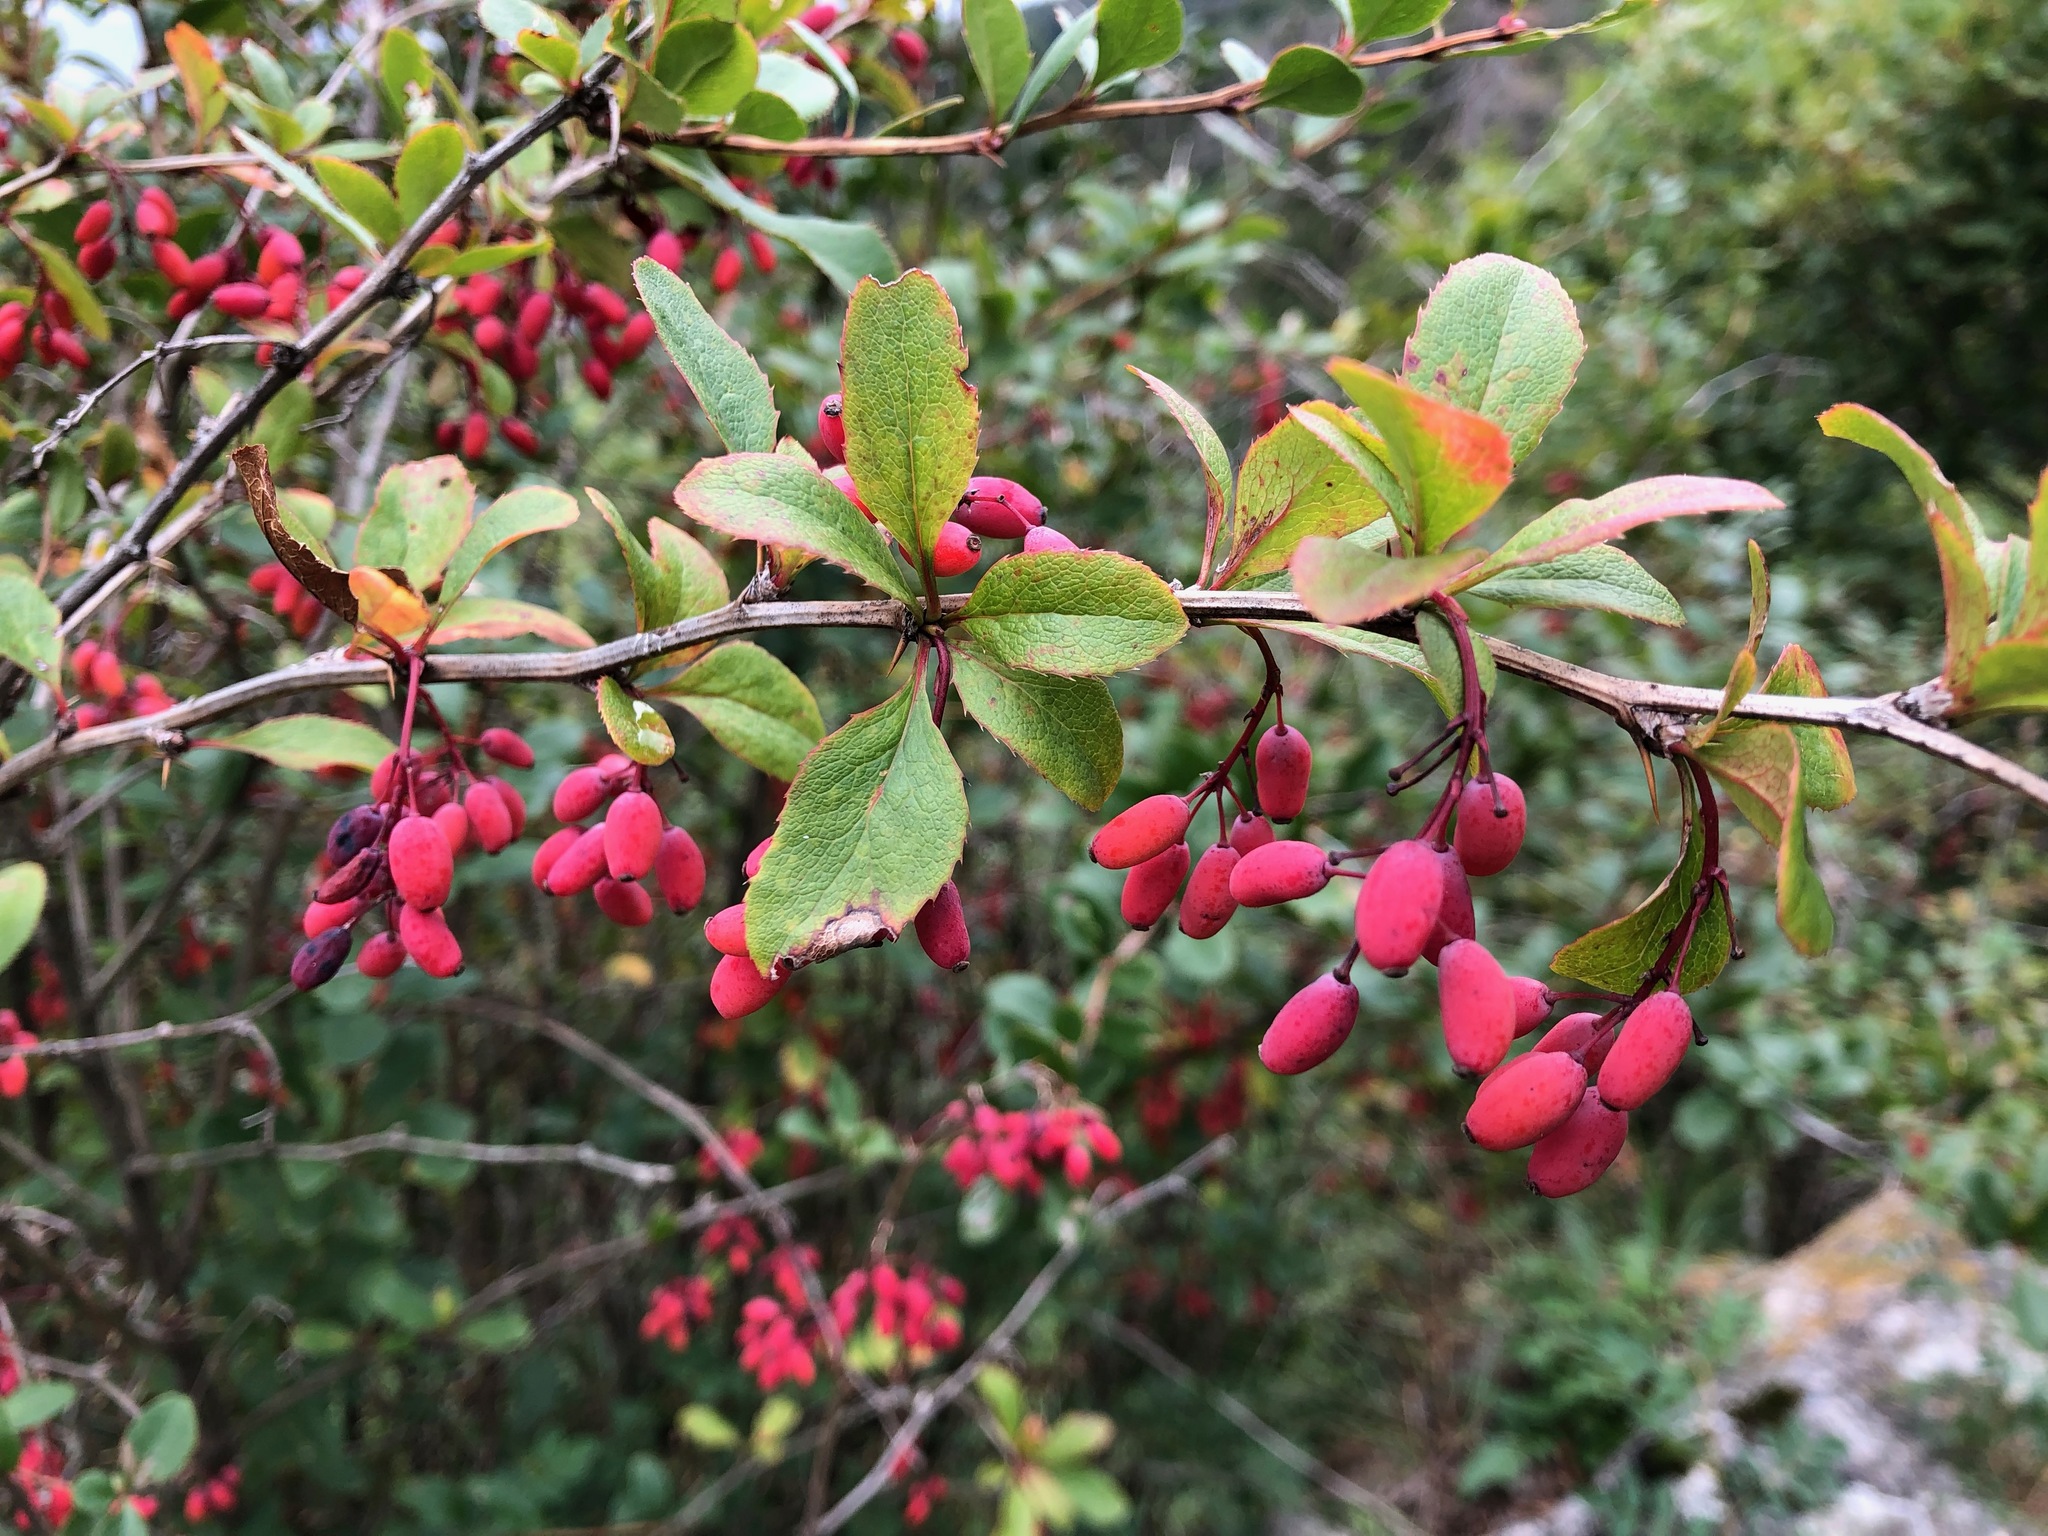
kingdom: Plantae
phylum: Tracheophyta
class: Magnoliopsida
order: Ranunculales
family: Berberidaceae
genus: Berberis
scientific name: Berberis vulgaris
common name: Barberry
